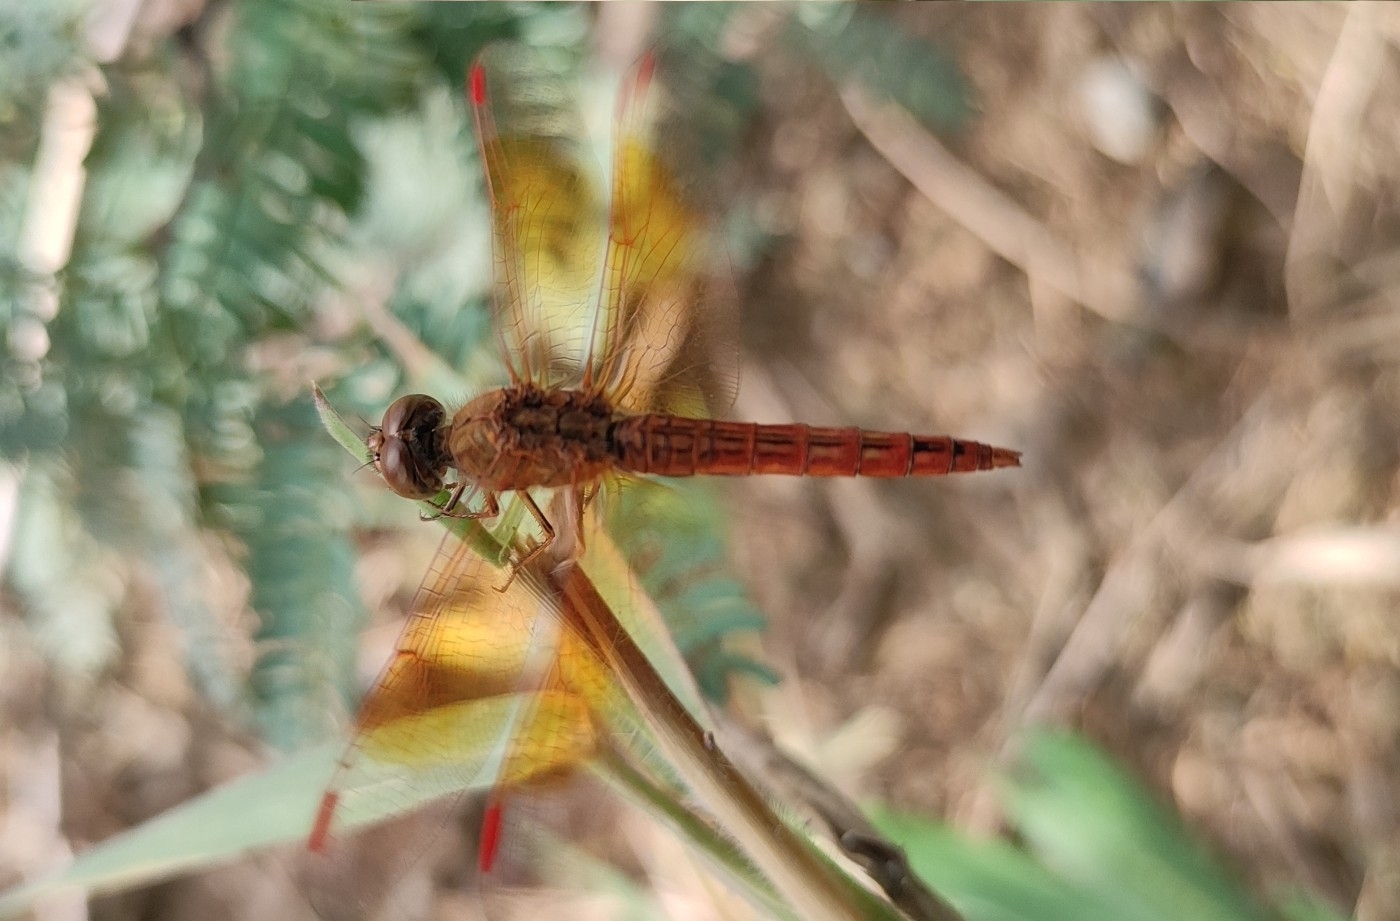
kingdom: Animalia
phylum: Arthropoda
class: Insecta
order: Odonata
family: Libellulidae
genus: Brachythemis
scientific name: Brachythemis contaminata
